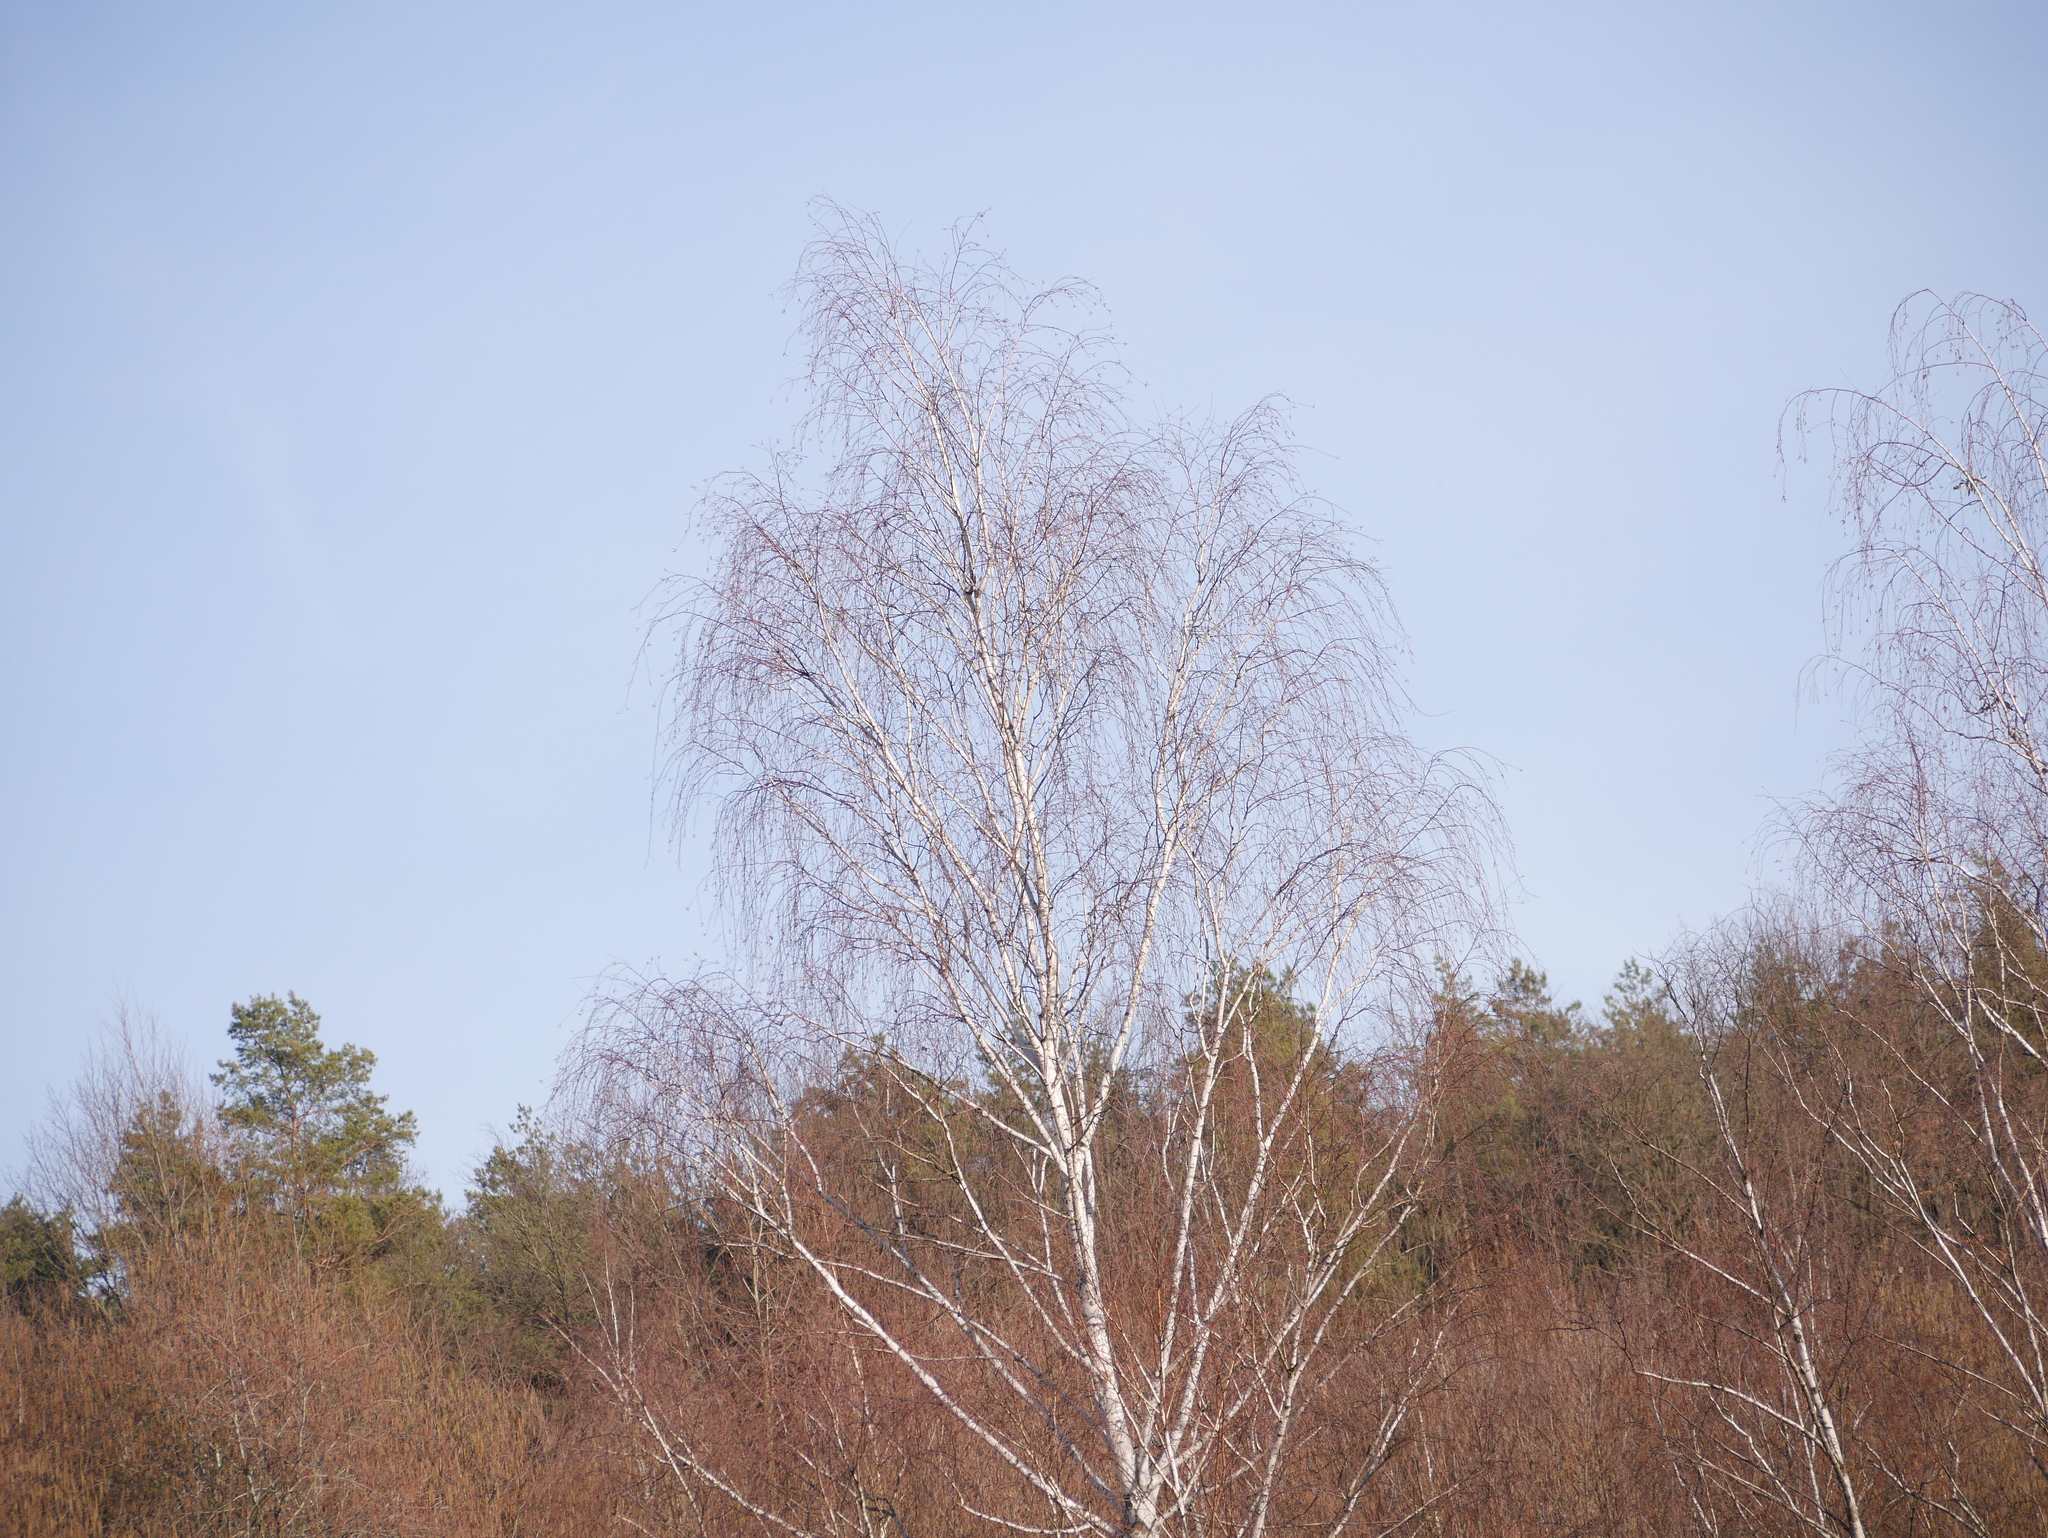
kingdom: Plantae
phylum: Tracheophyta
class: Magnoliopsida
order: Fagales
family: Betulaceae
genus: Betula
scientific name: Betula pendula
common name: Silver birch
